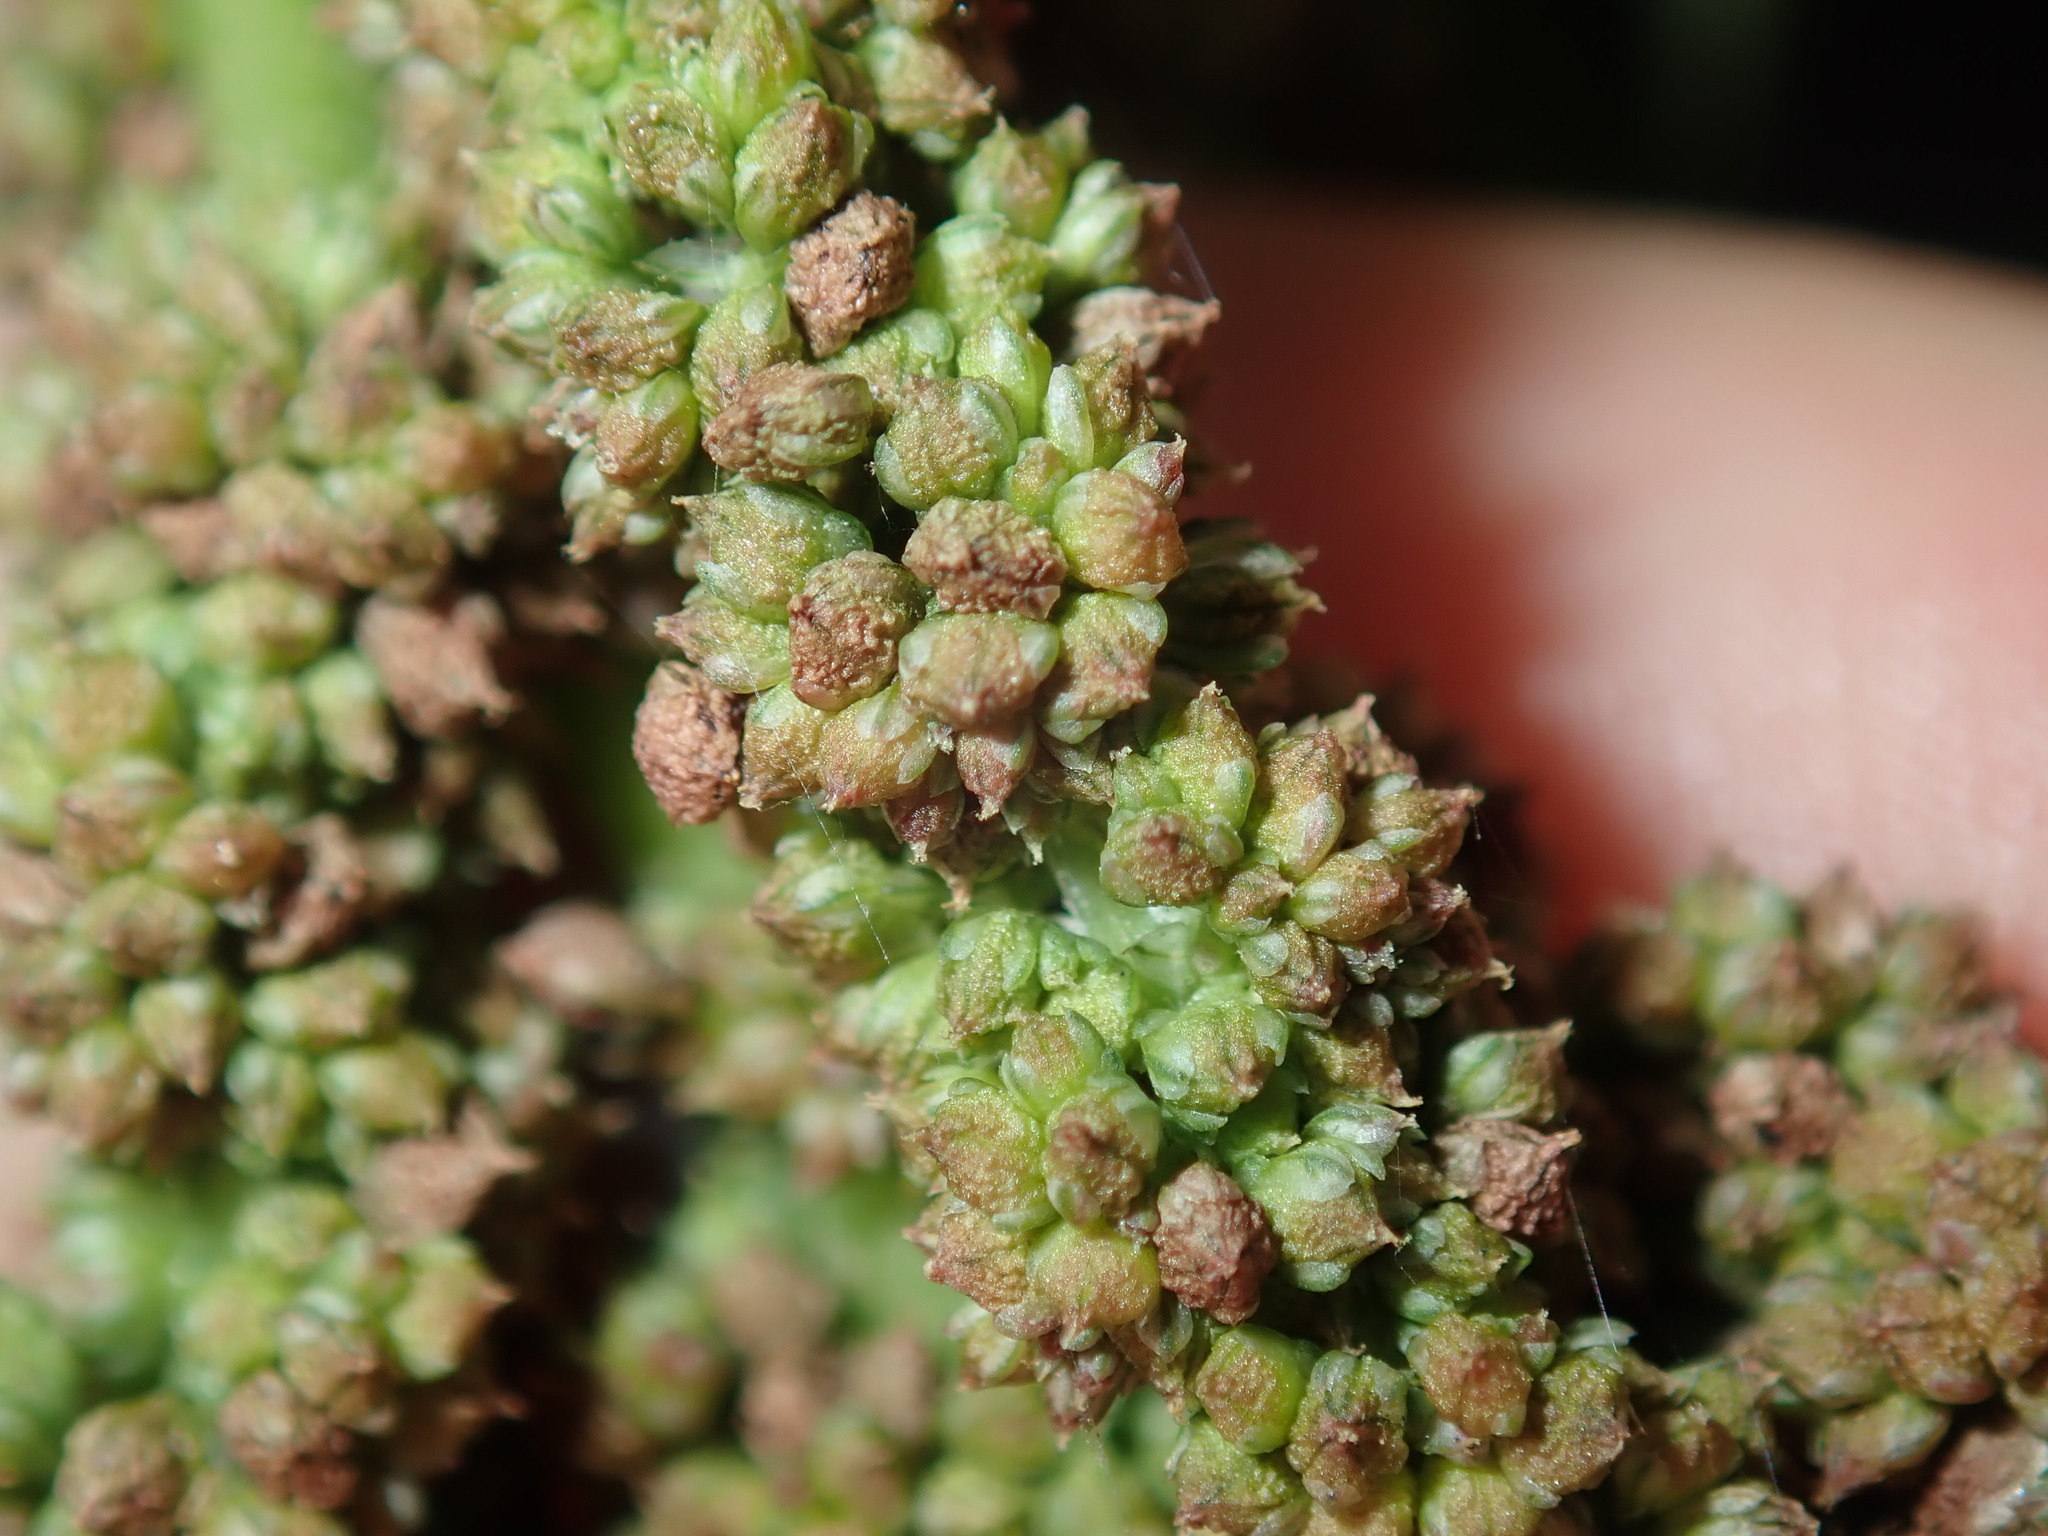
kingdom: Plantae
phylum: Tracheophyta
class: Magnoliopsida
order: Caryophyllales
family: Amaranthaceae
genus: Amaranthus
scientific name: Amaranthus viridis
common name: Slender amaranth
